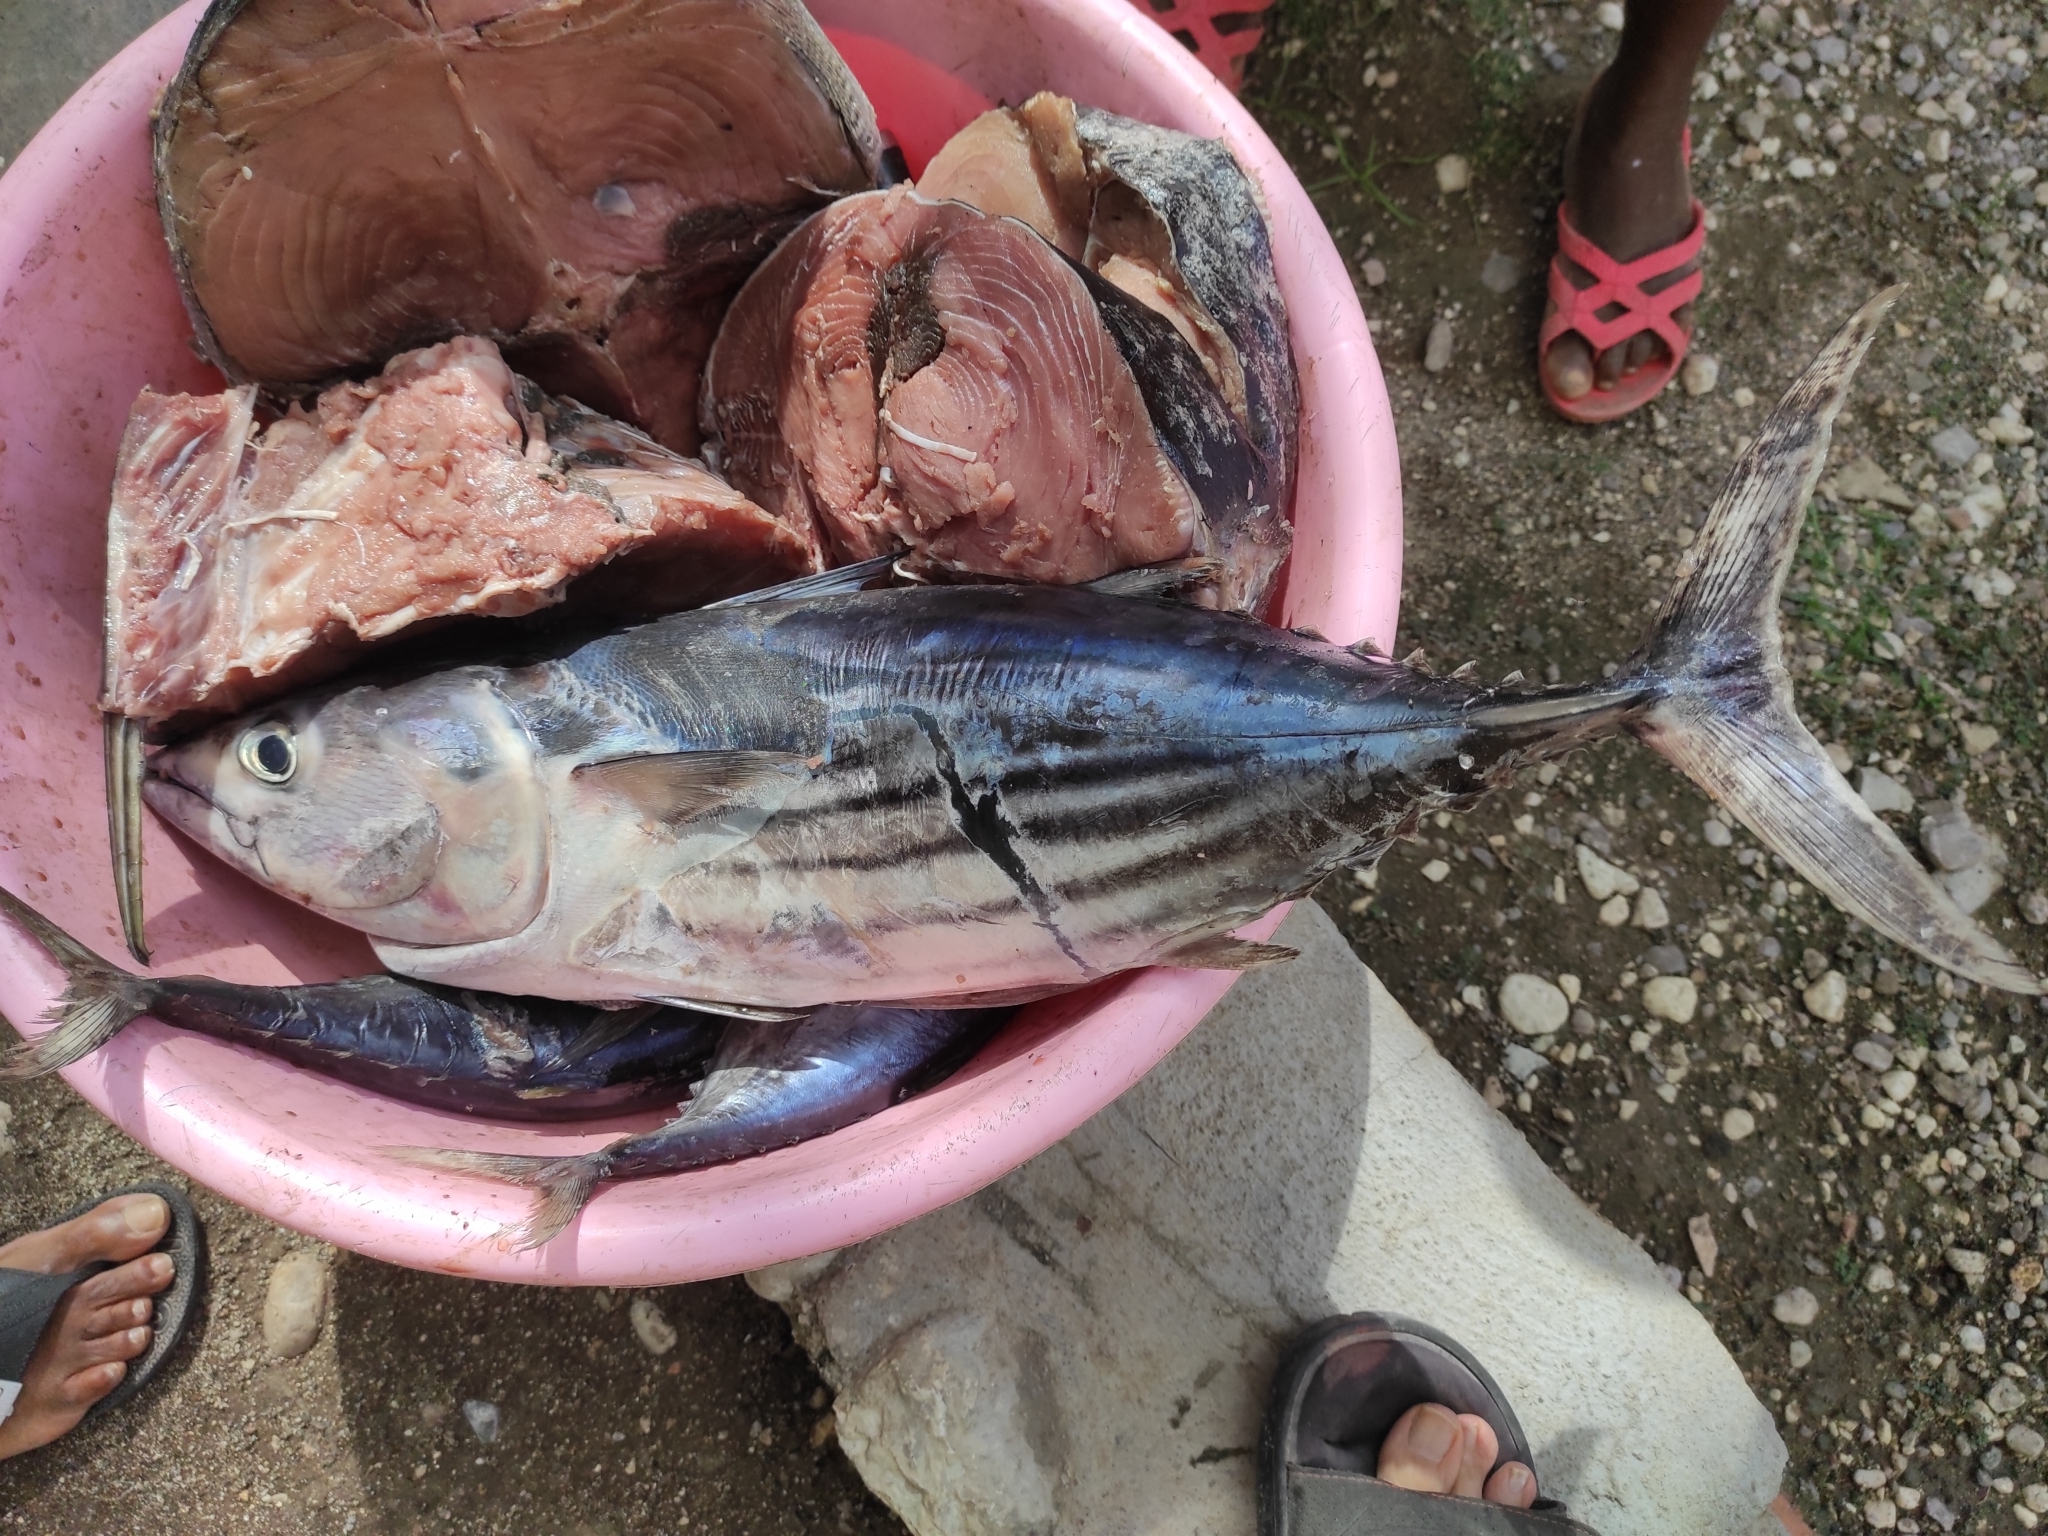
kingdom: Animalia
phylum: Chordata
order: Perciformes
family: Scombridae
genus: Katsuwonus
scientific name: Katsuwonus pelamis
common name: Skipjack tuna
